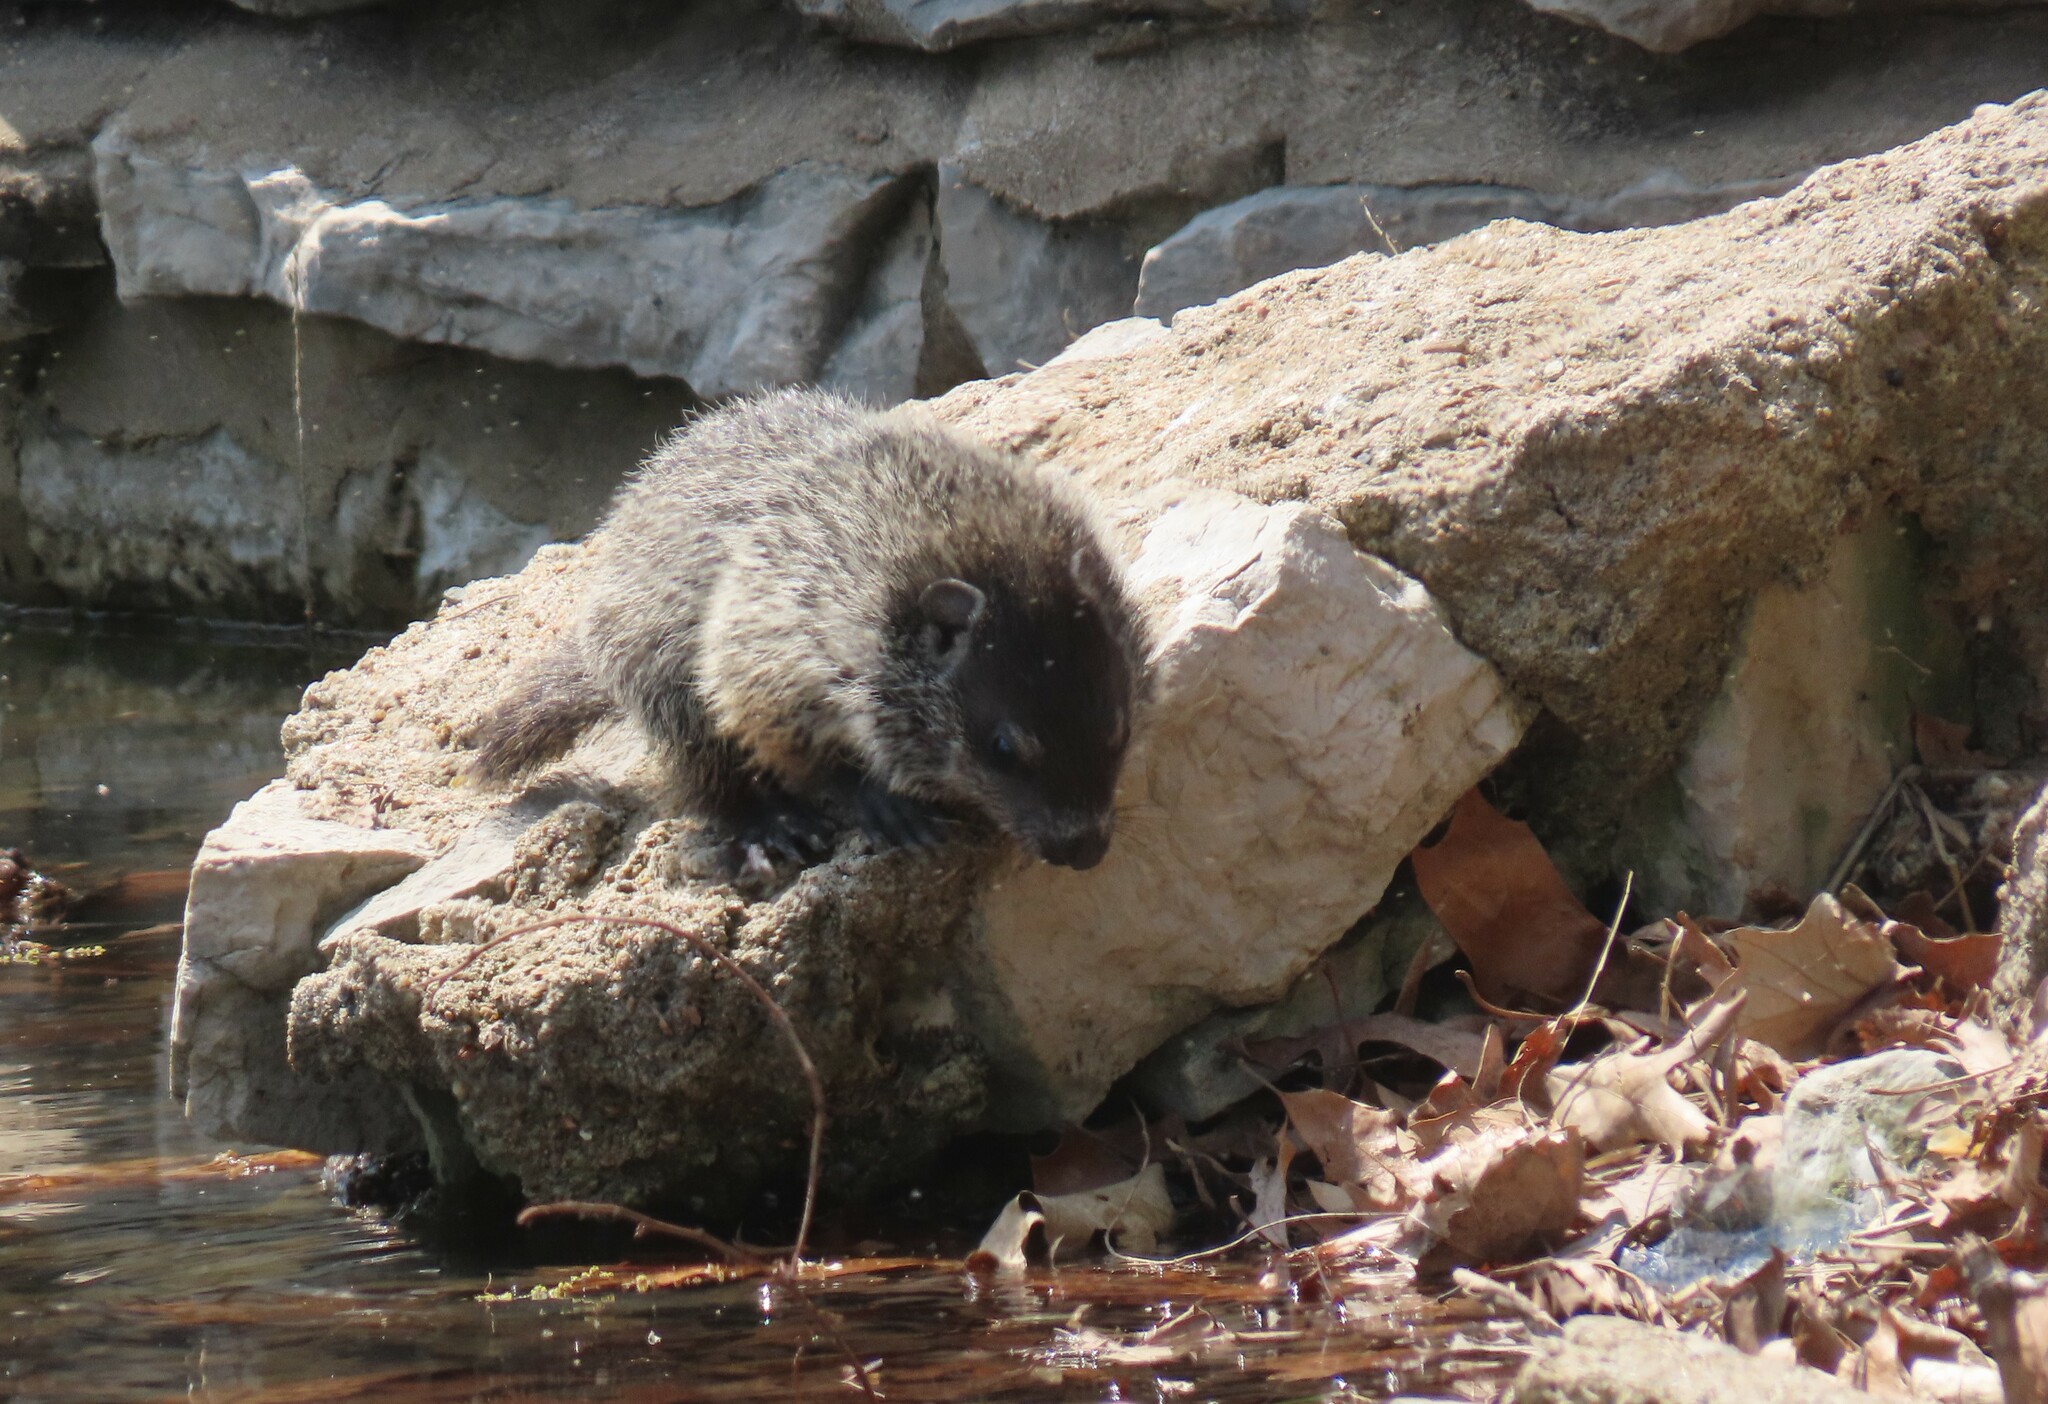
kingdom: Animalia
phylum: Chordata
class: Mammalia
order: Rodentia
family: Sciuridae
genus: Marmota
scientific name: Marmota monax
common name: Groundhog
